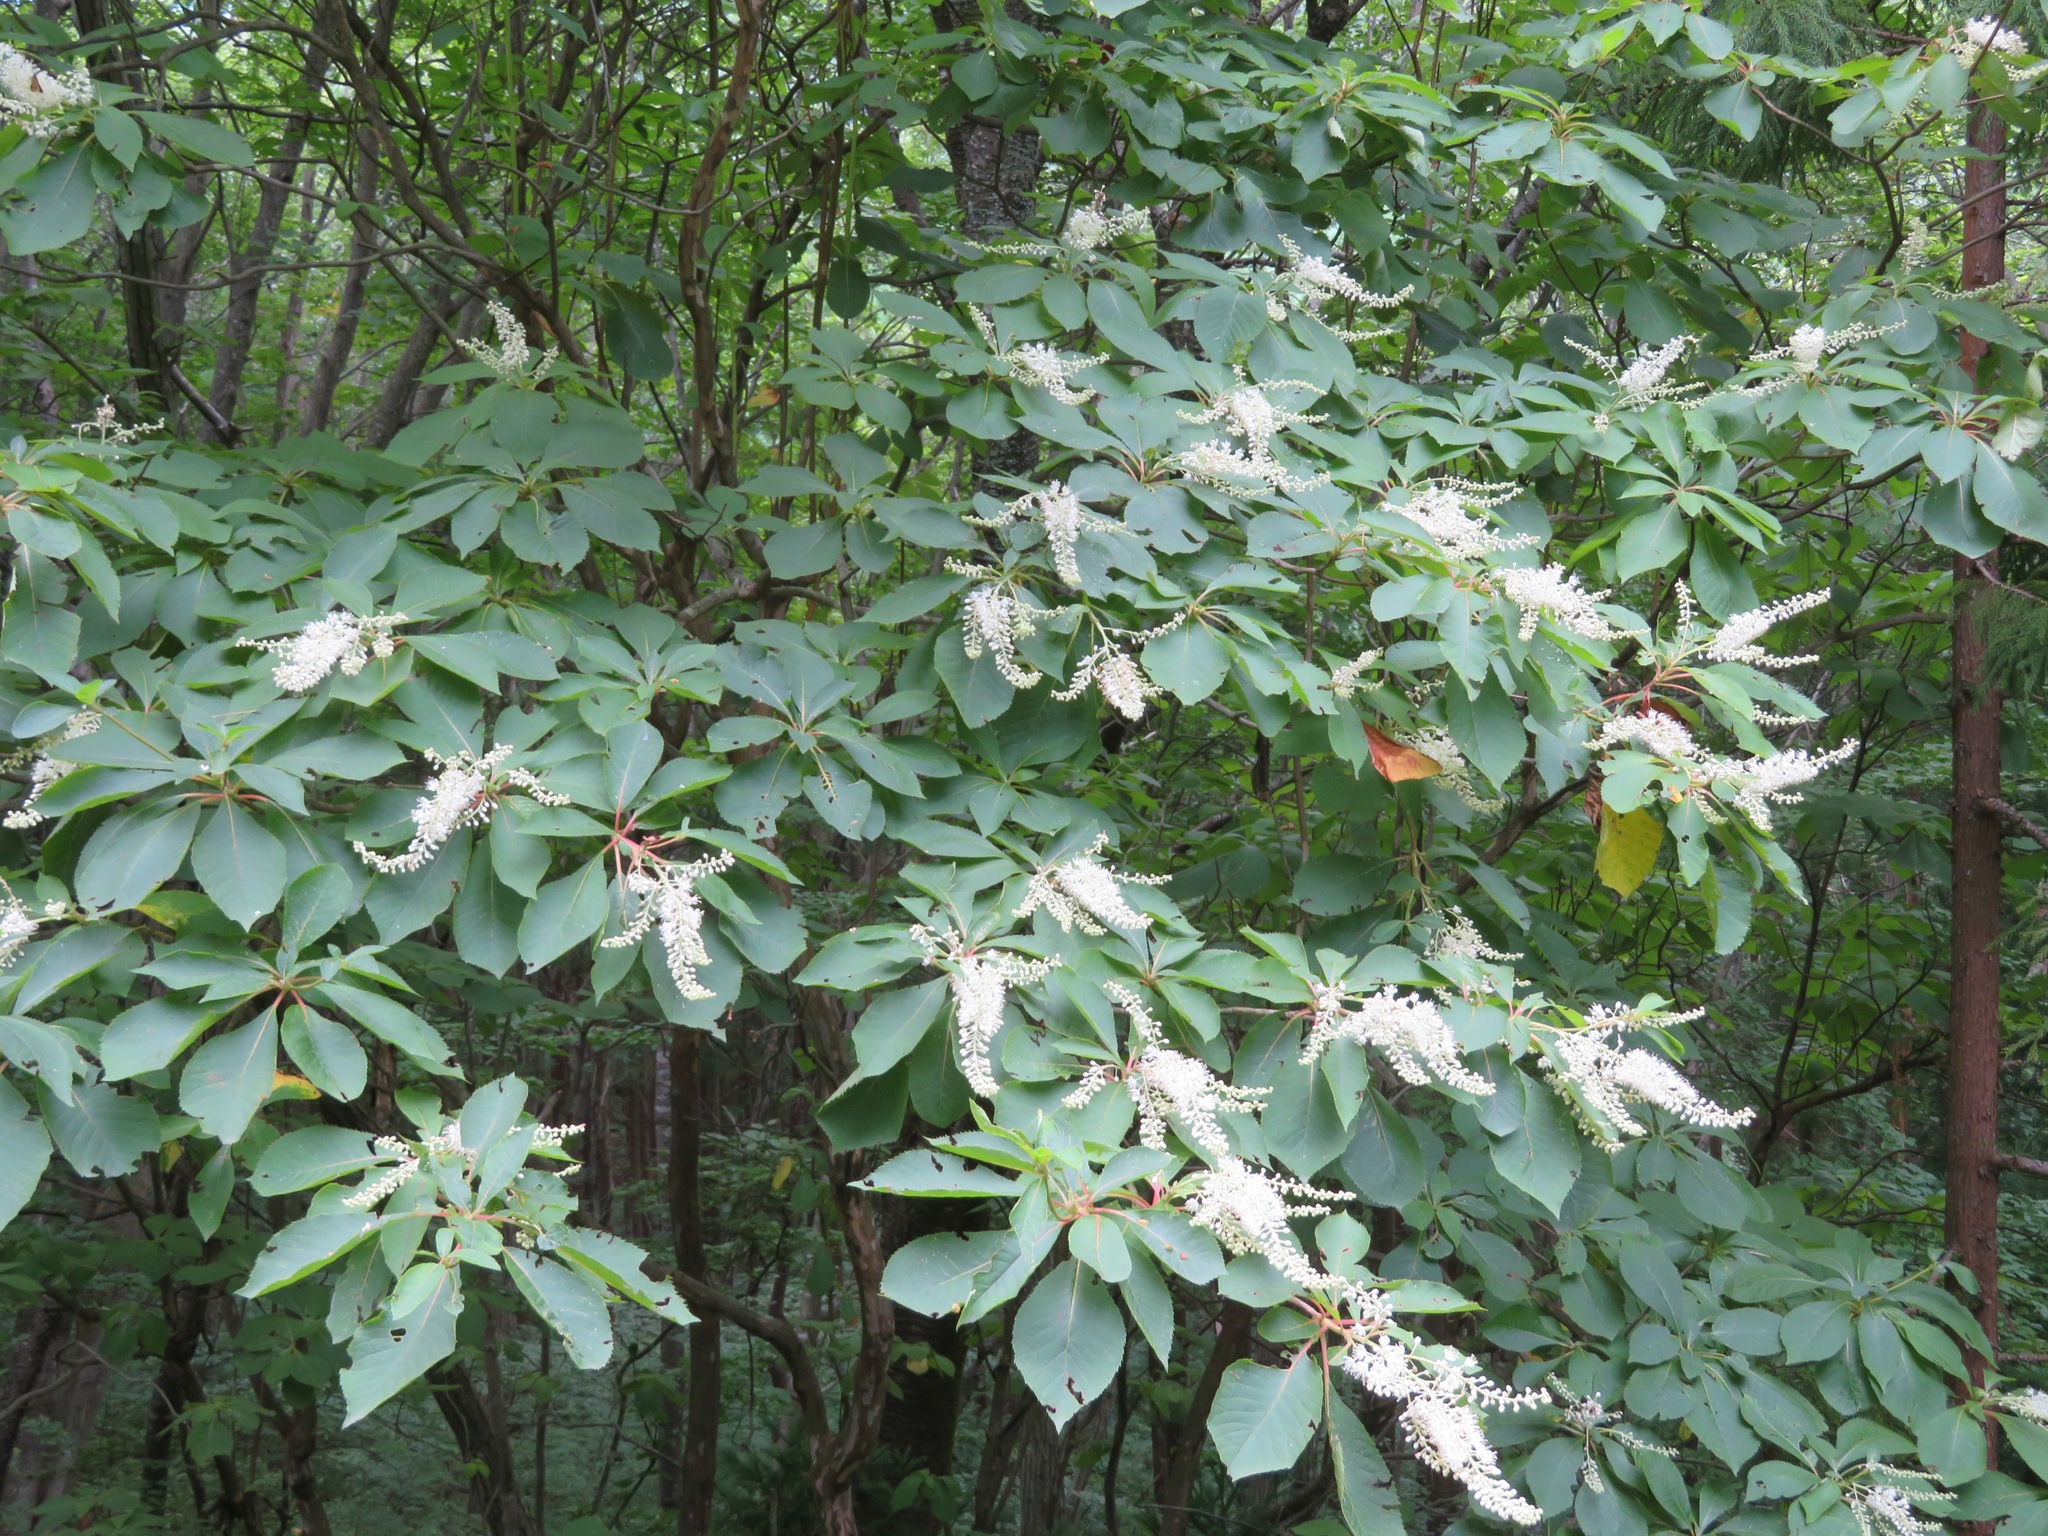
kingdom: Plantae
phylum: Tracheophyta
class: Magnoliopsida
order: Ericales
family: Clethraceae
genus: Clethra
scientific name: Clethra barbinervis
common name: Japanese clethra
